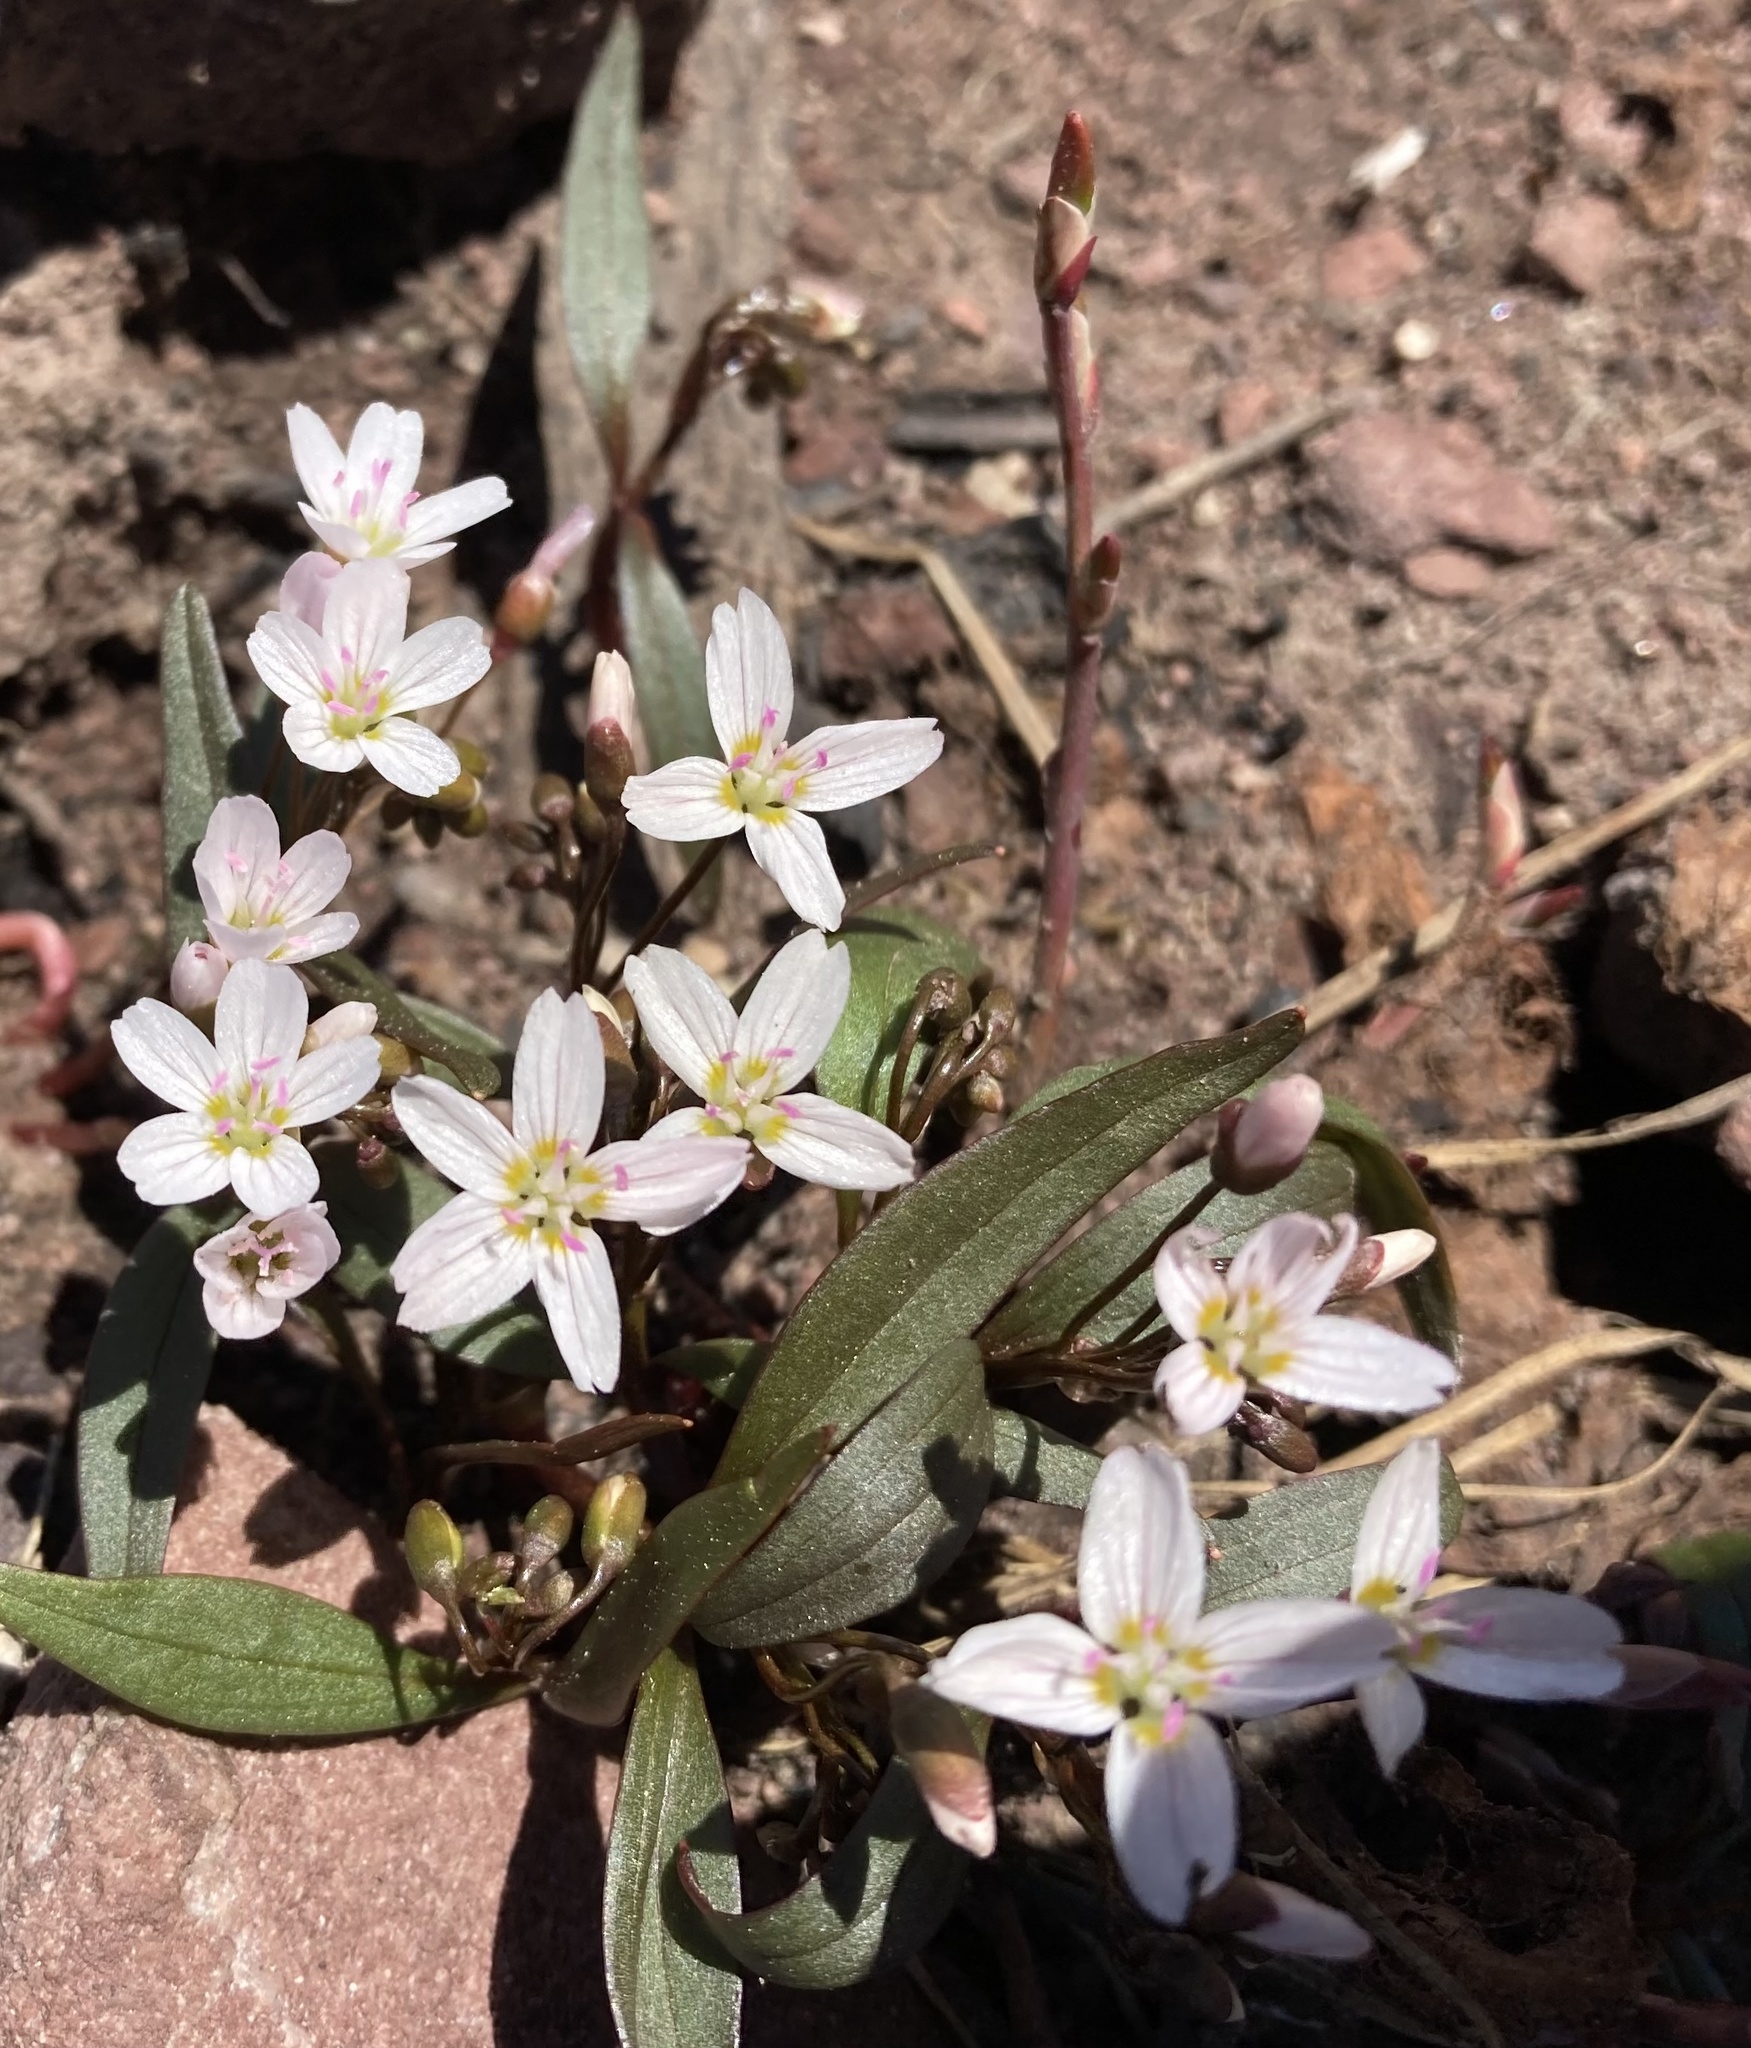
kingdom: Plantae
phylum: Tracheophyta
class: Magnoliopsida
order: Caryophyllales
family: Montiaceae
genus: Claytonia
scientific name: Claytonia lanceolata
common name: Western spring-beauty
